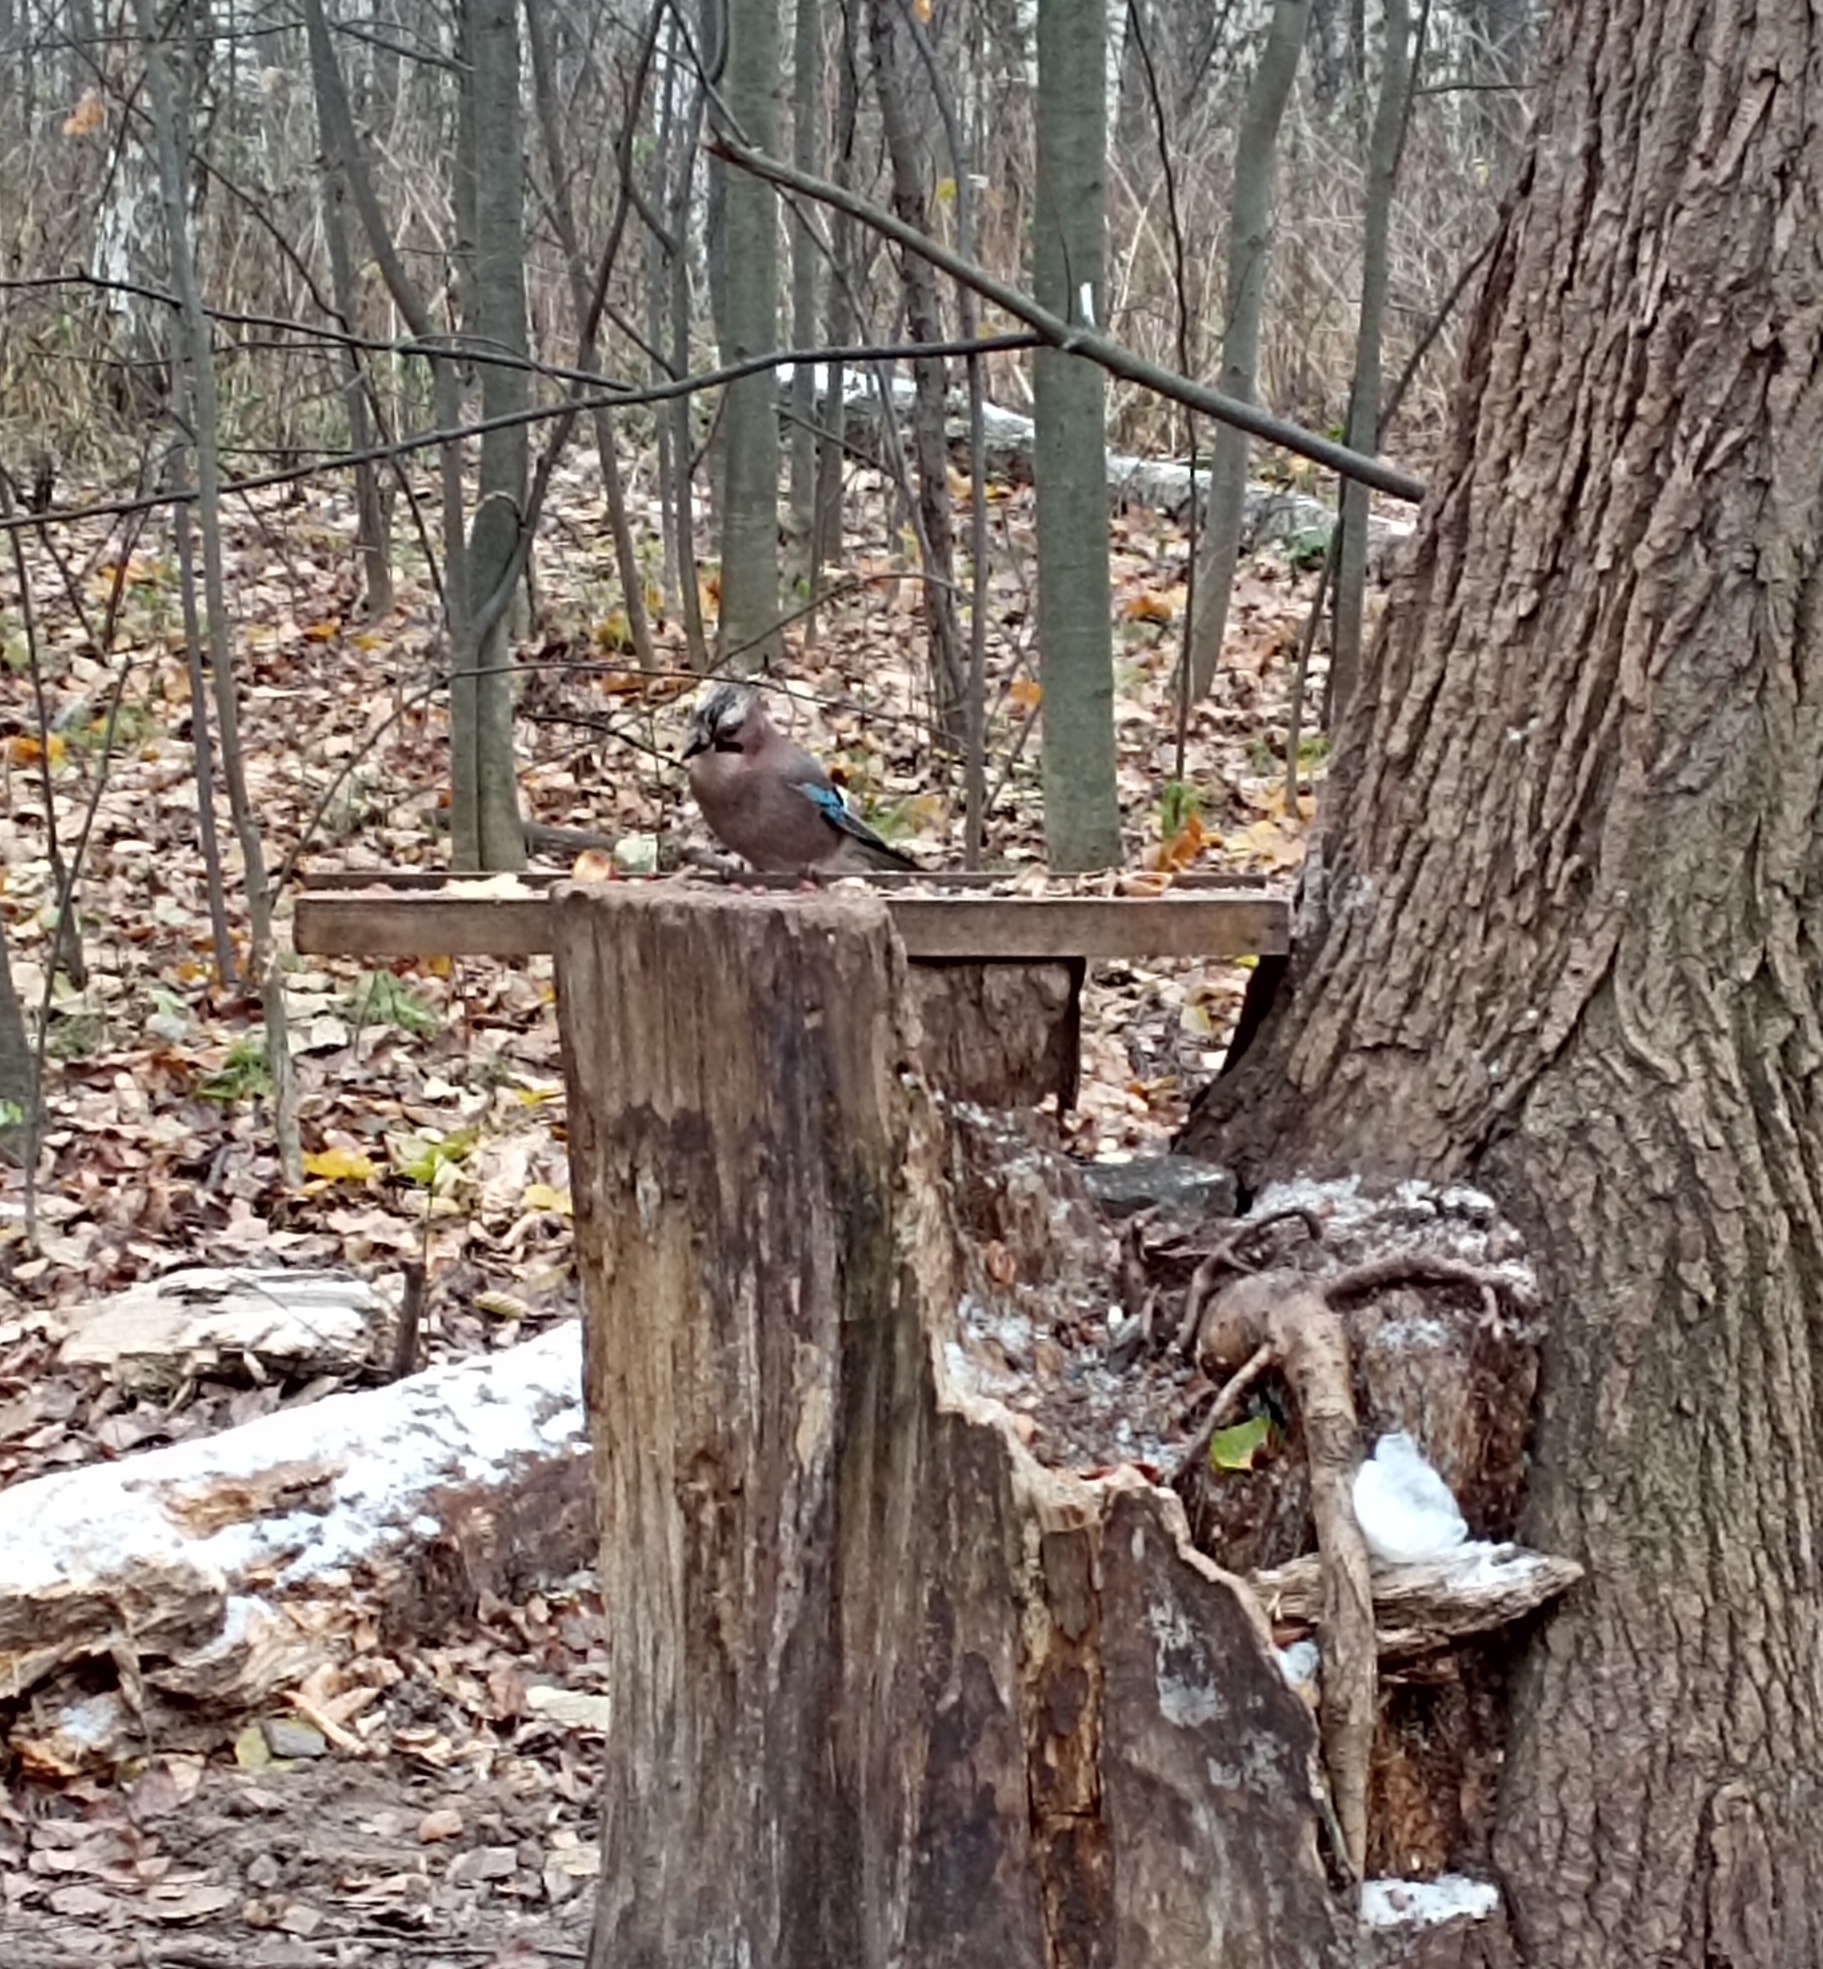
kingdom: Animalia
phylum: Chordata
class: Aves
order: Passeriformes
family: Corvidae
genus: Garrulus
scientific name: Garrulus glandarius
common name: Eurasian jay
